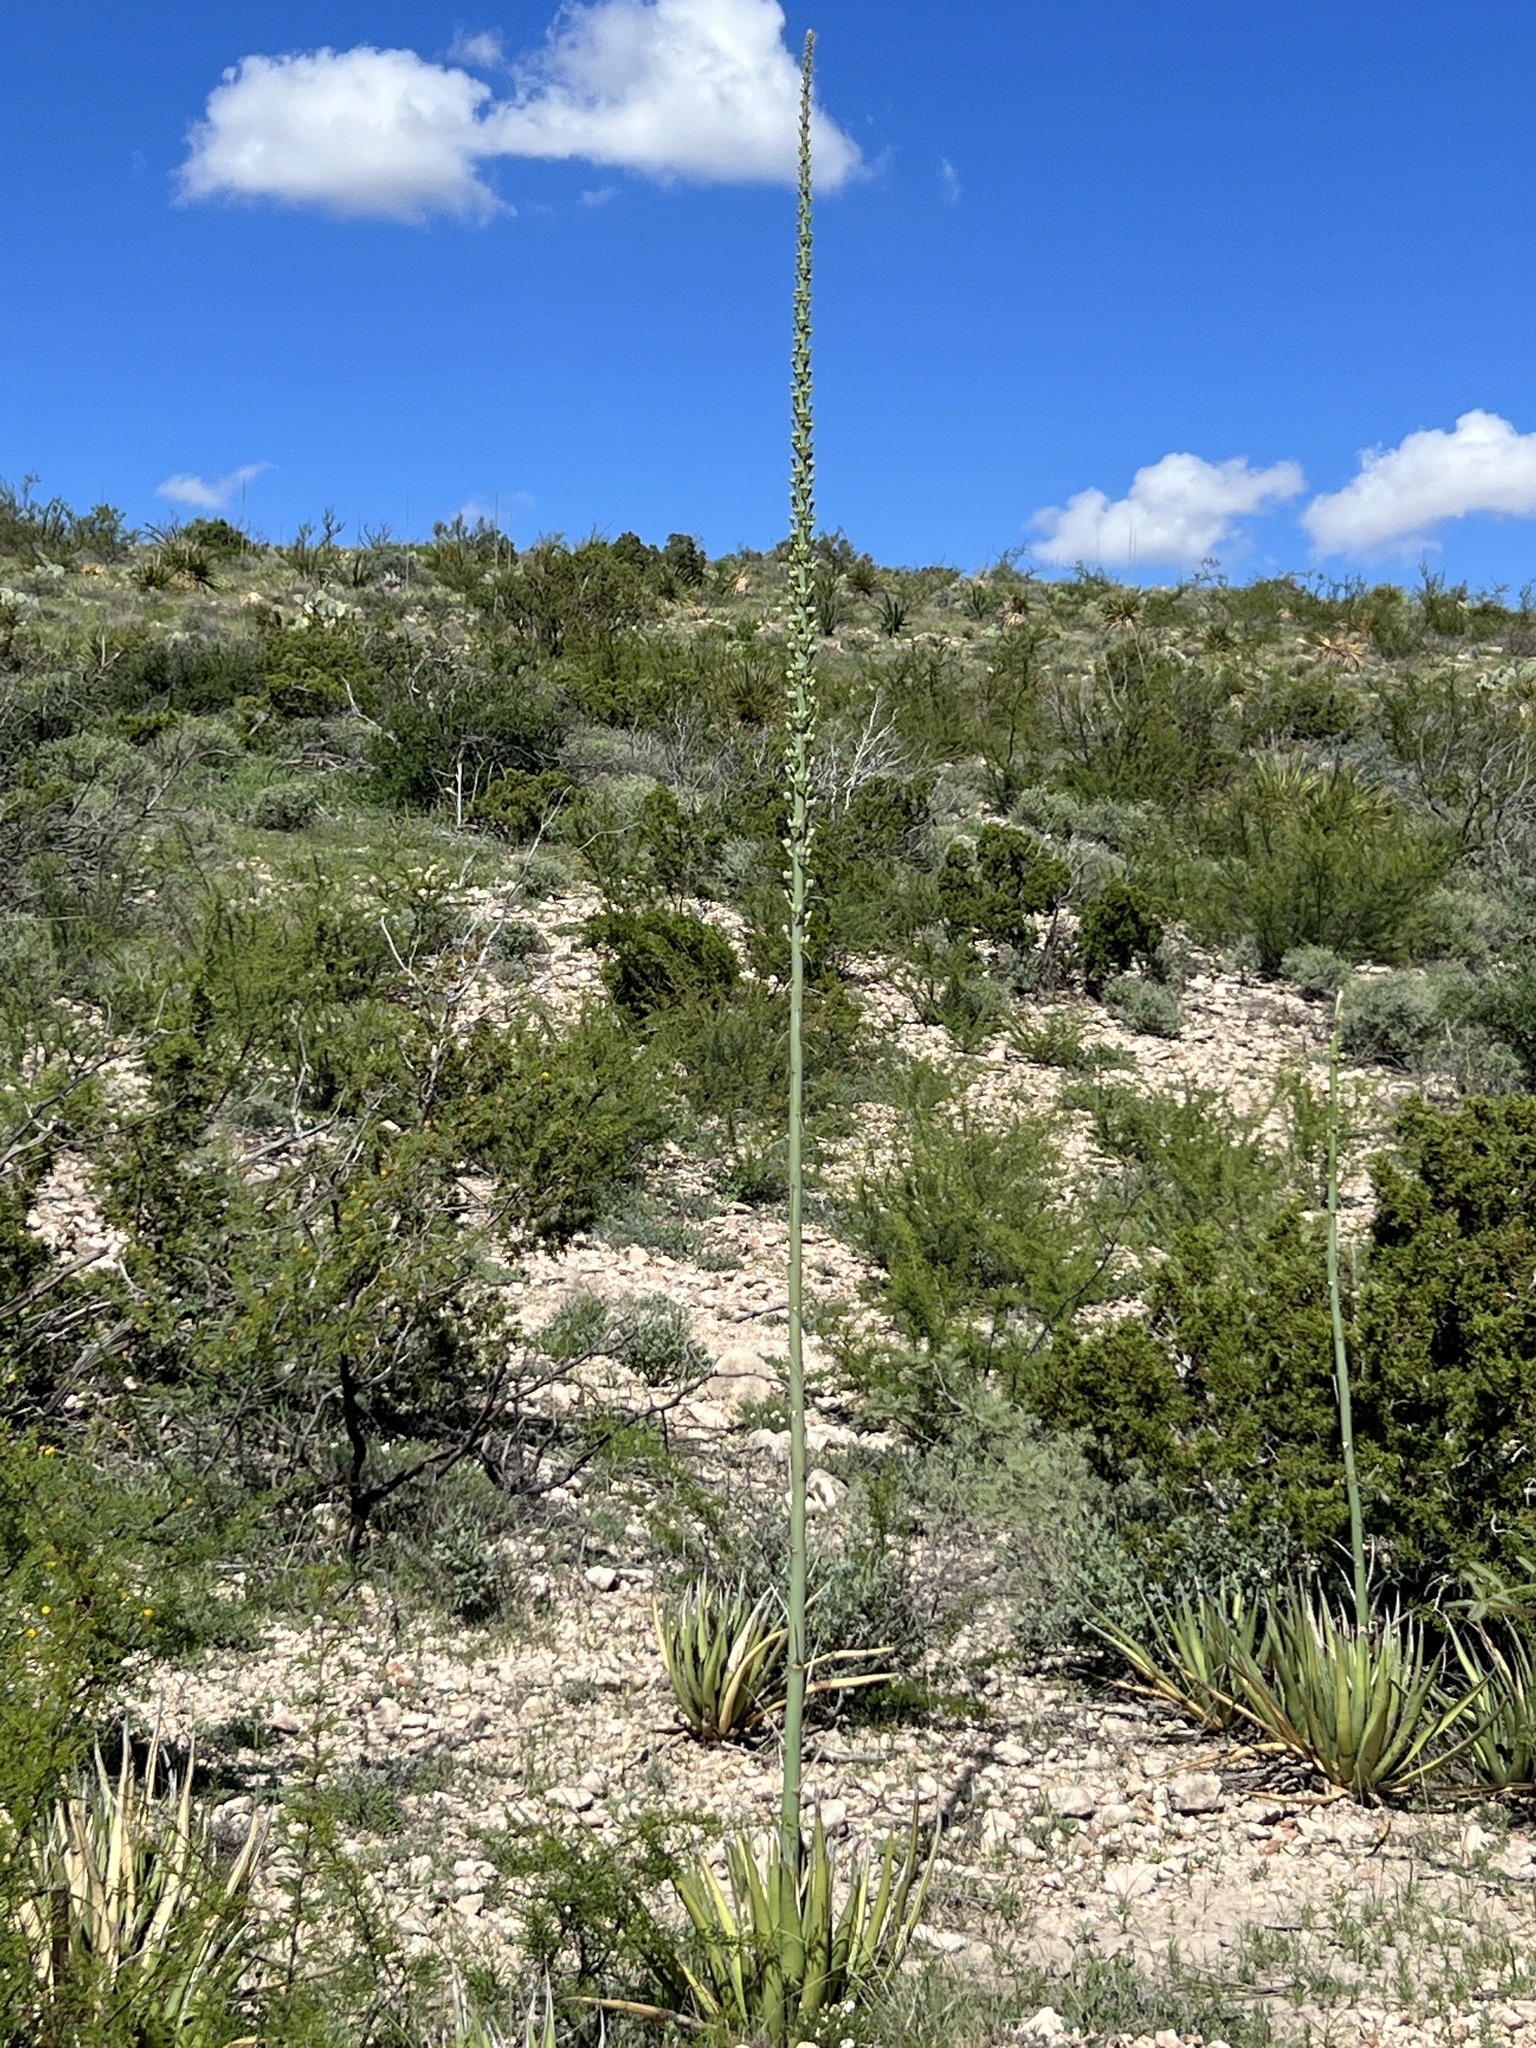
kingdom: Plantae
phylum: Tracheophyta
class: Liliopsida
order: Asparagales
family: Asparagaceae
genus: Agave
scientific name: Agave lechuguilla
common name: Lecheguilla agave
